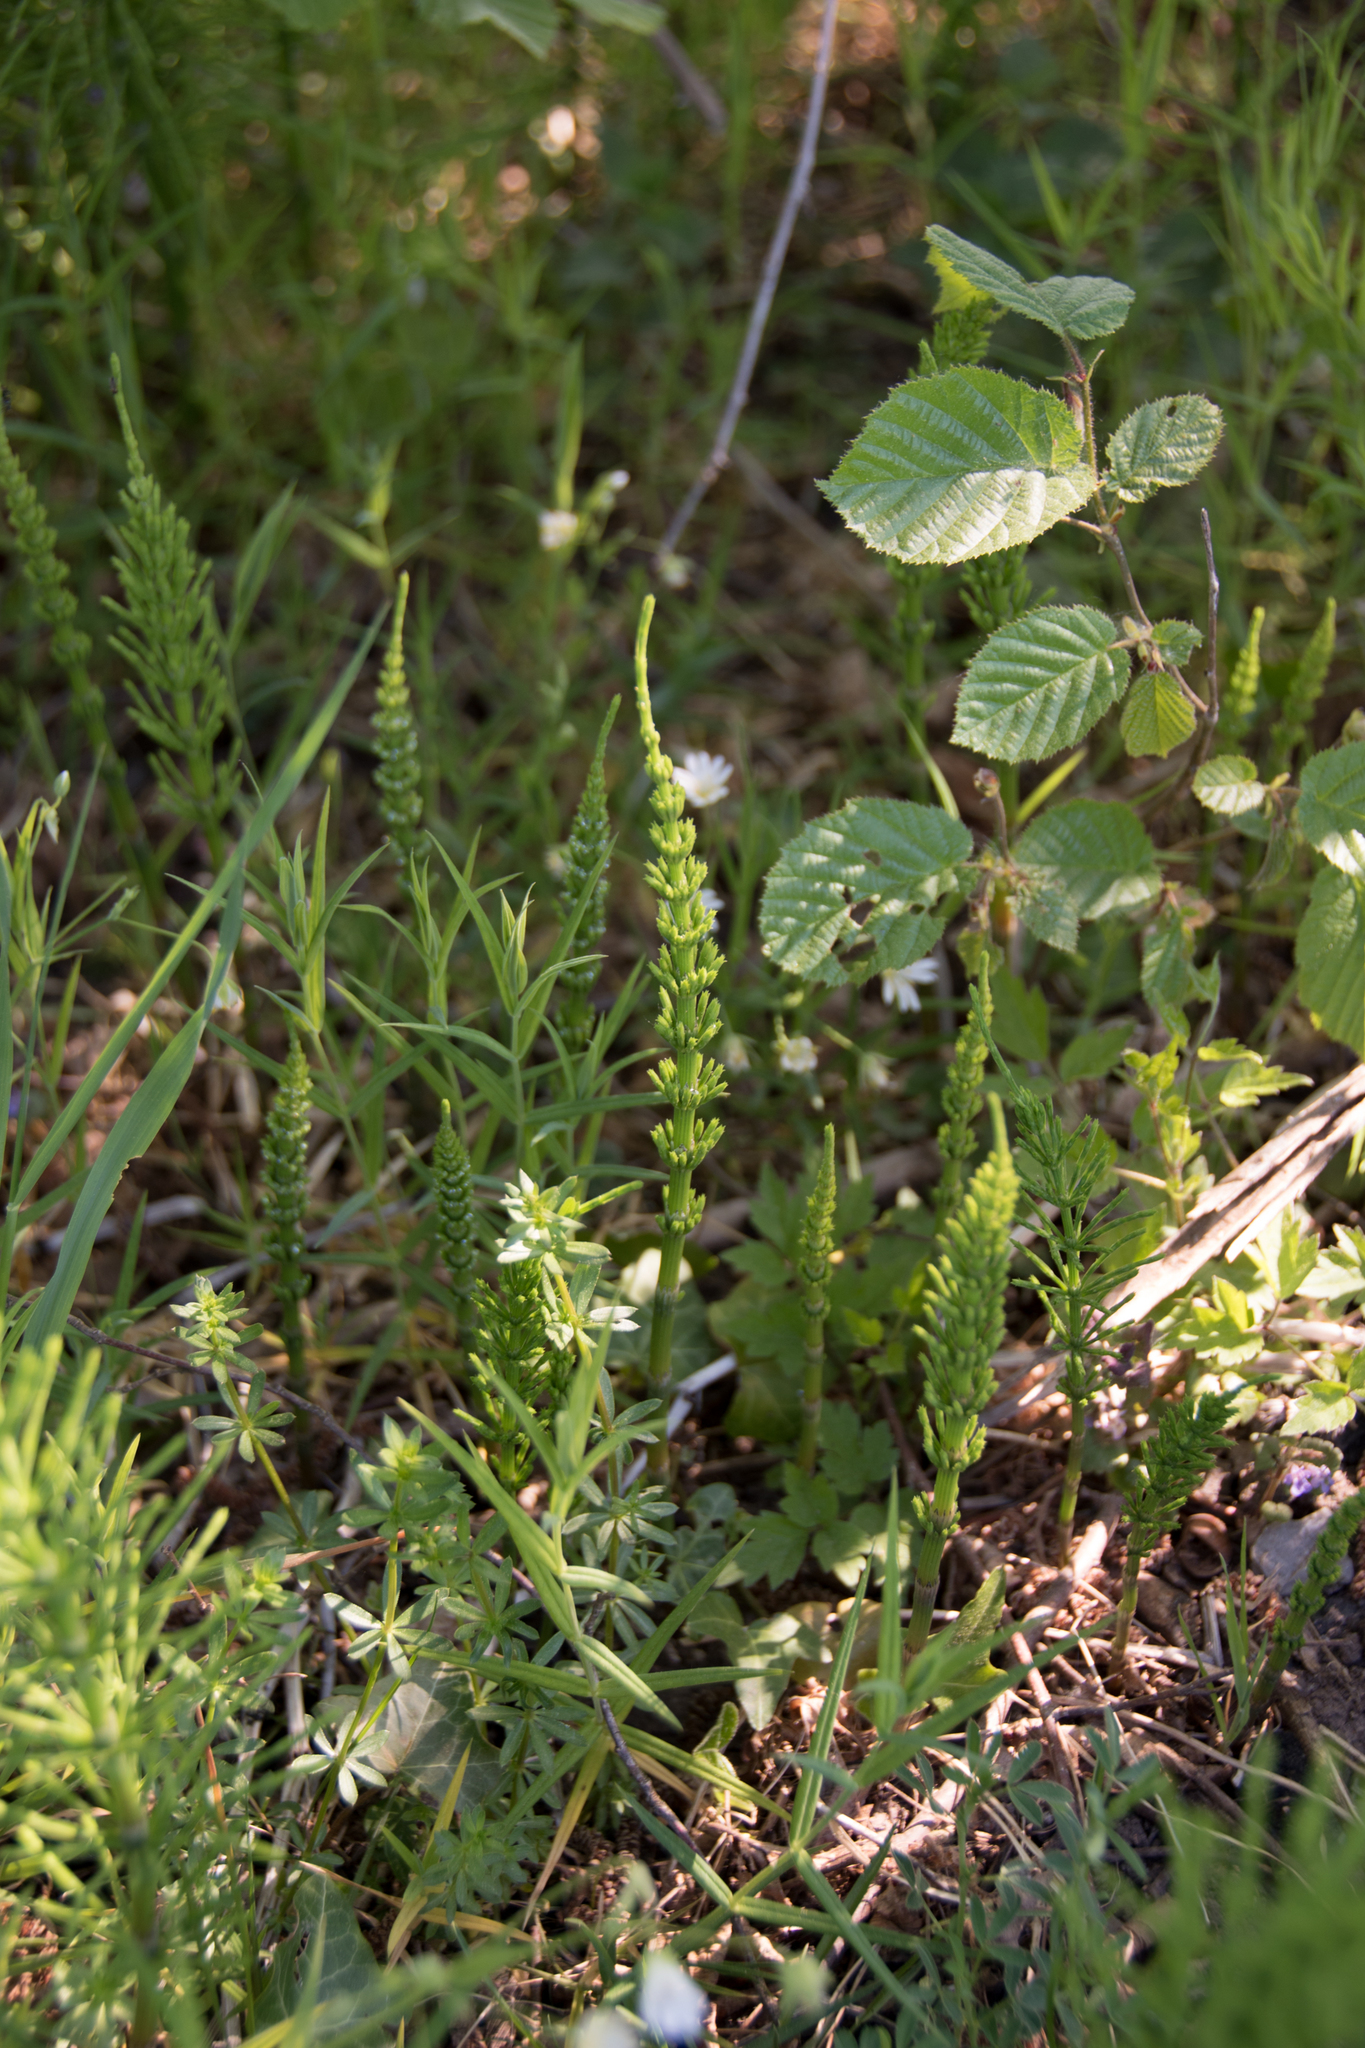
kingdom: Plantae
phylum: Tracheophyta
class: Polypodiopsida
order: Equisetales
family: Equisetaceae
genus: Equisetum
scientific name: Equisetum arvense
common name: Field horsetail
